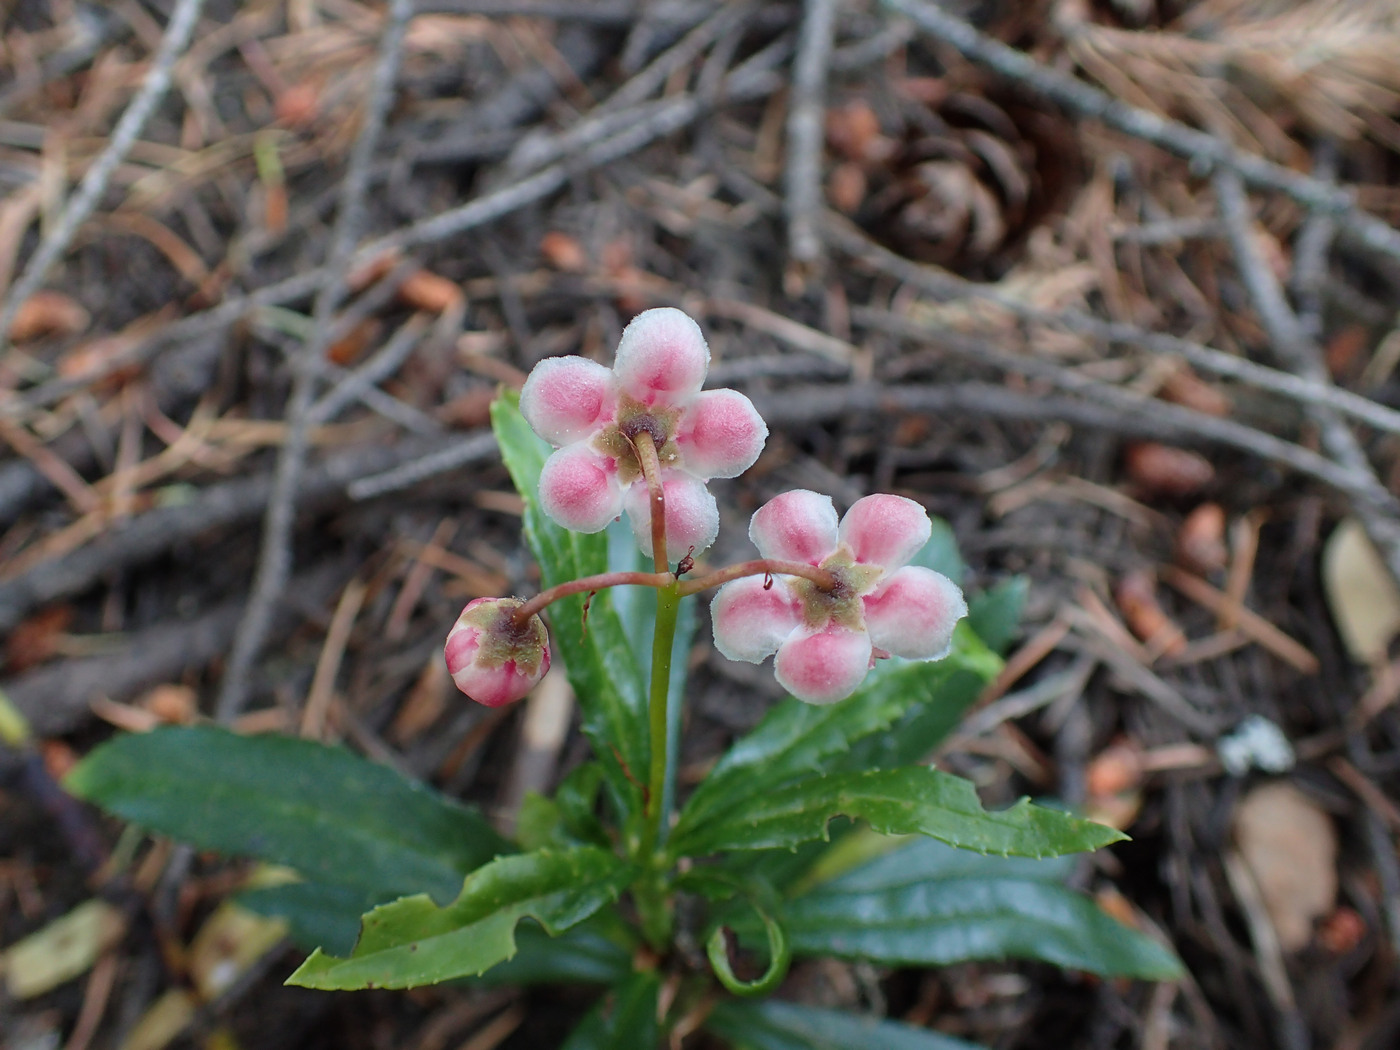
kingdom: Plantae
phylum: Tracheophyta
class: Magnoliopsida
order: Ericales
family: Ericaceae
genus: Chimaphila
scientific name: Chimaphila umbellata
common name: Pipsissewa
